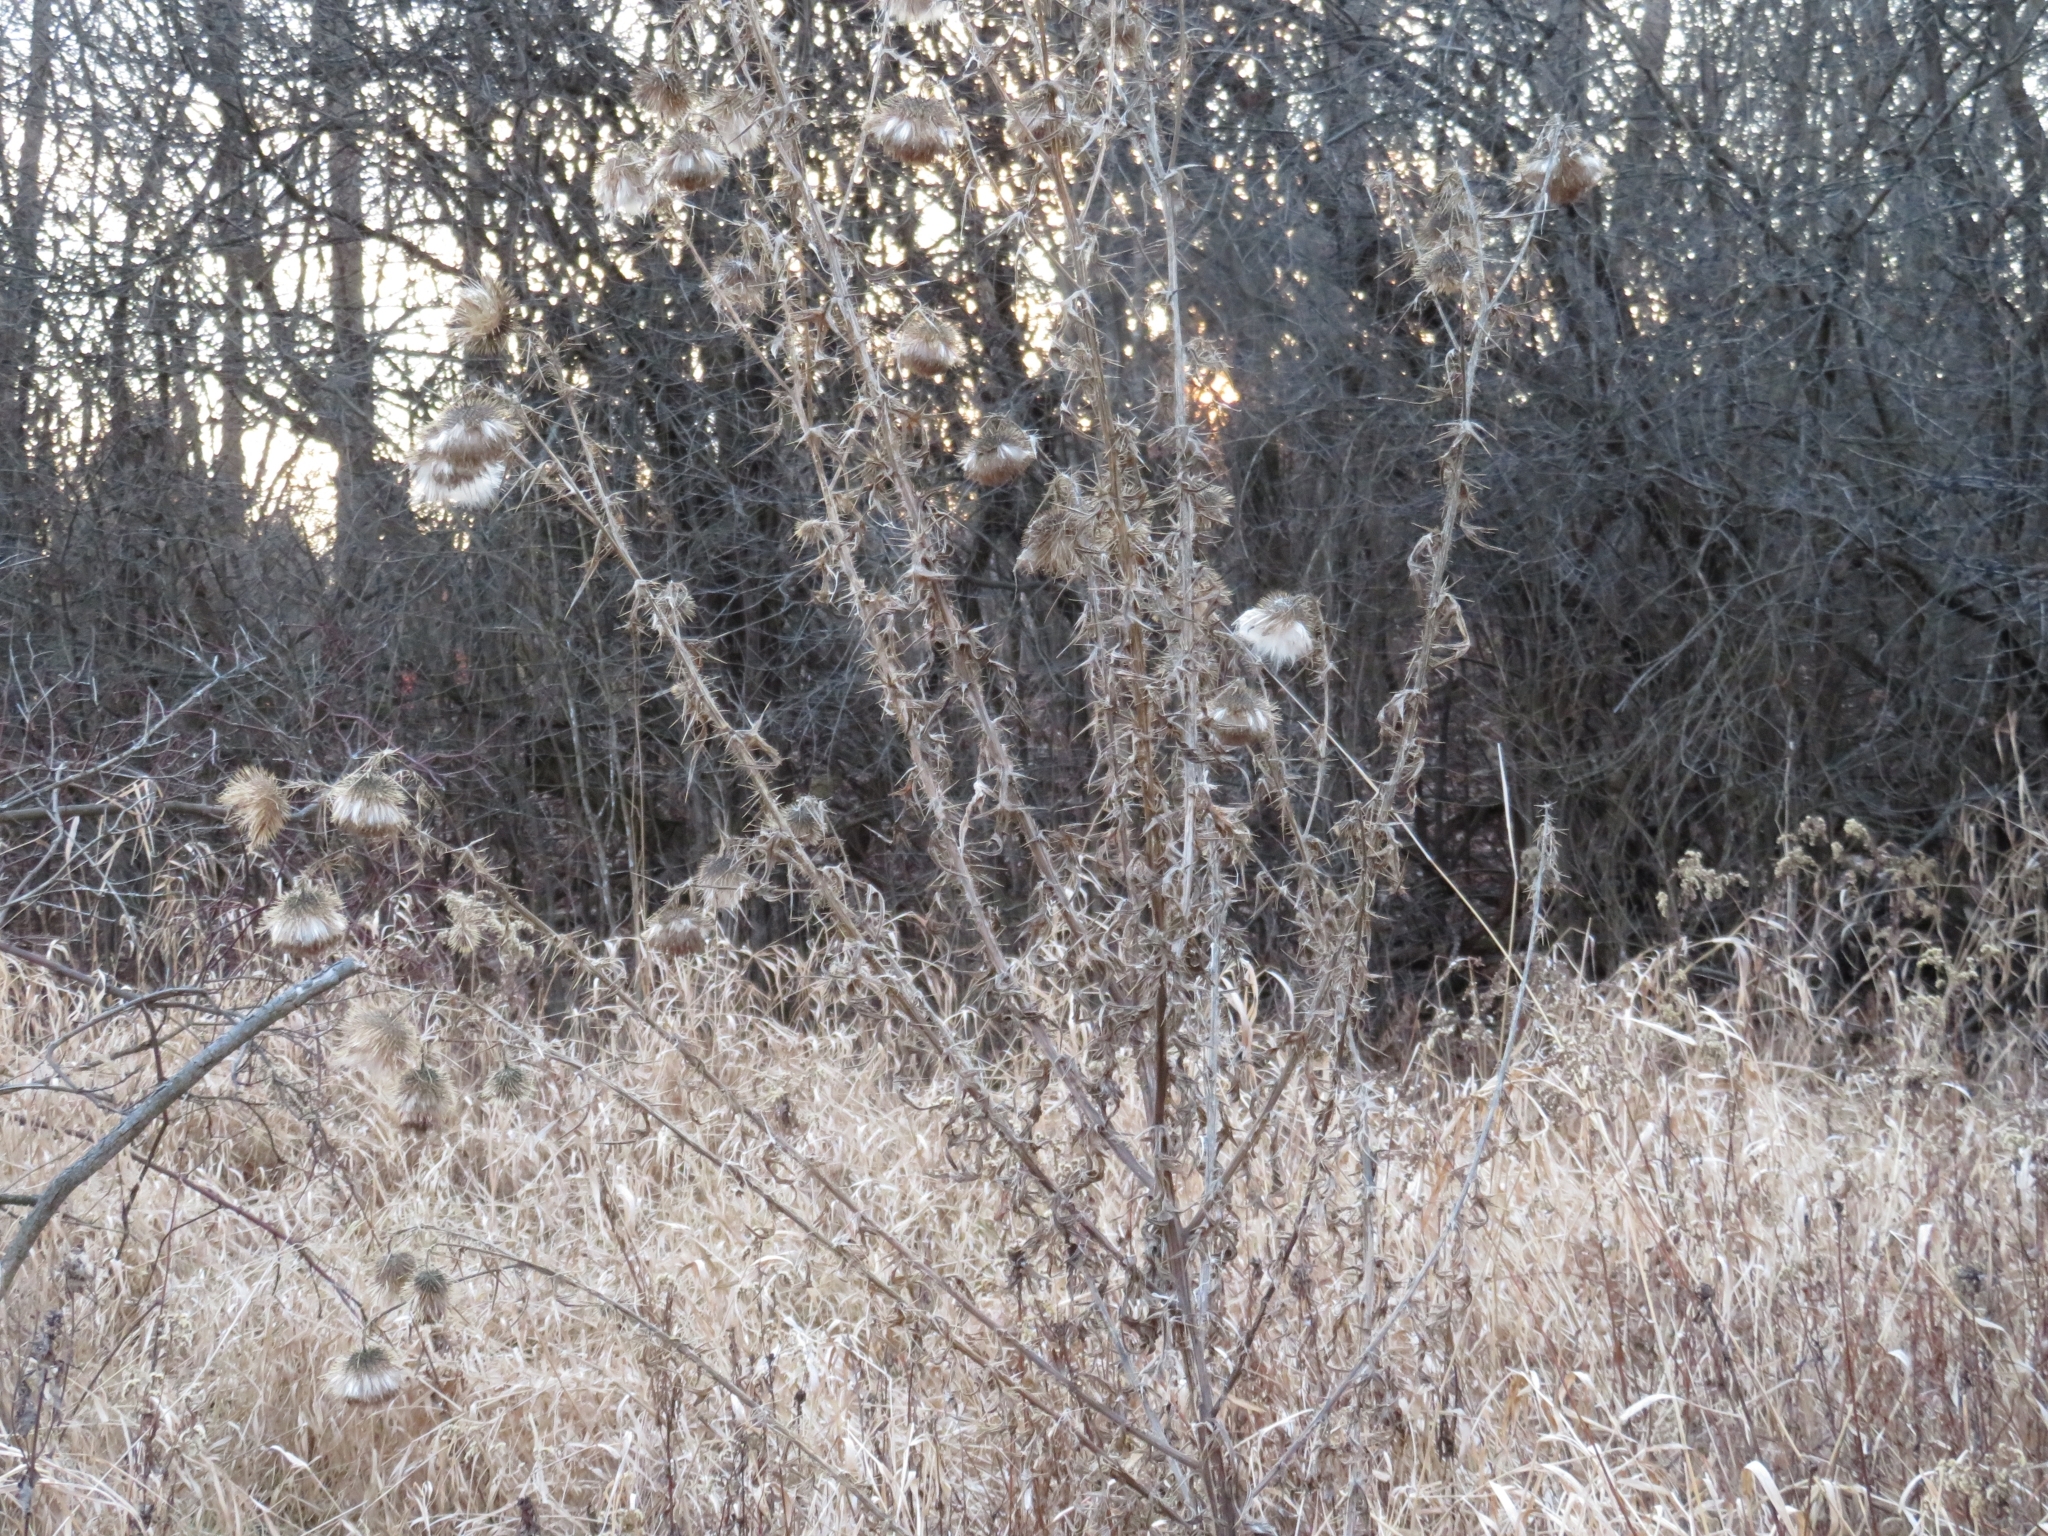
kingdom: Plantae
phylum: Tracheophyta
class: Magnoliopsida
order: Asterales
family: Asteraceae
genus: Cirsium
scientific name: Cirsium vulgare
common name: Bull thistle
